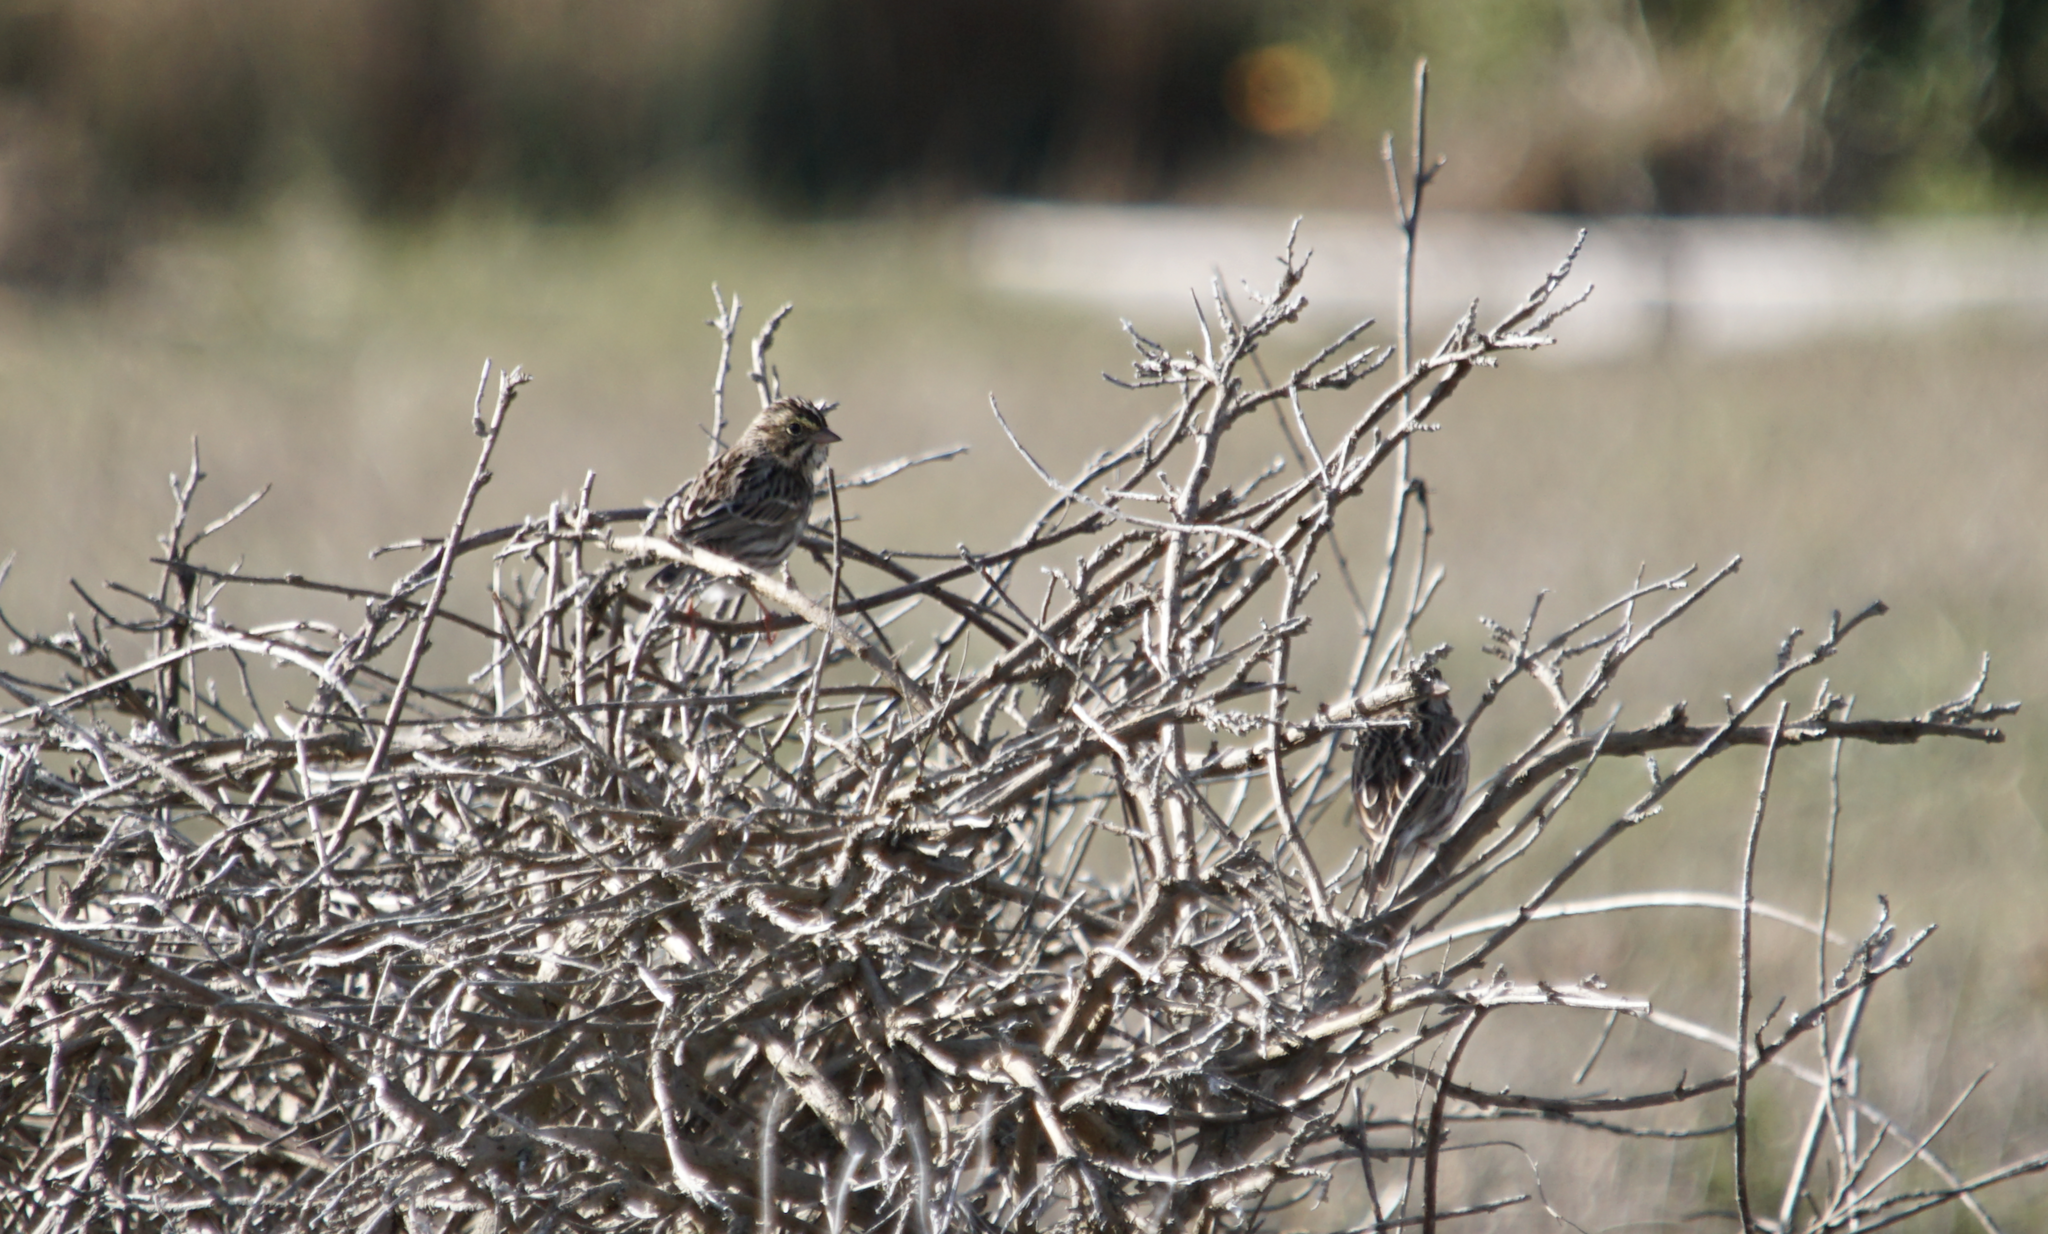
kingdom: Animalia
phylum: Chordata
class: Aves
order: Passeriformes
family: Passerellidae
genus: Passerculus
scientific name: Passerculus sandwichensis
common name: Savannah sparrow
